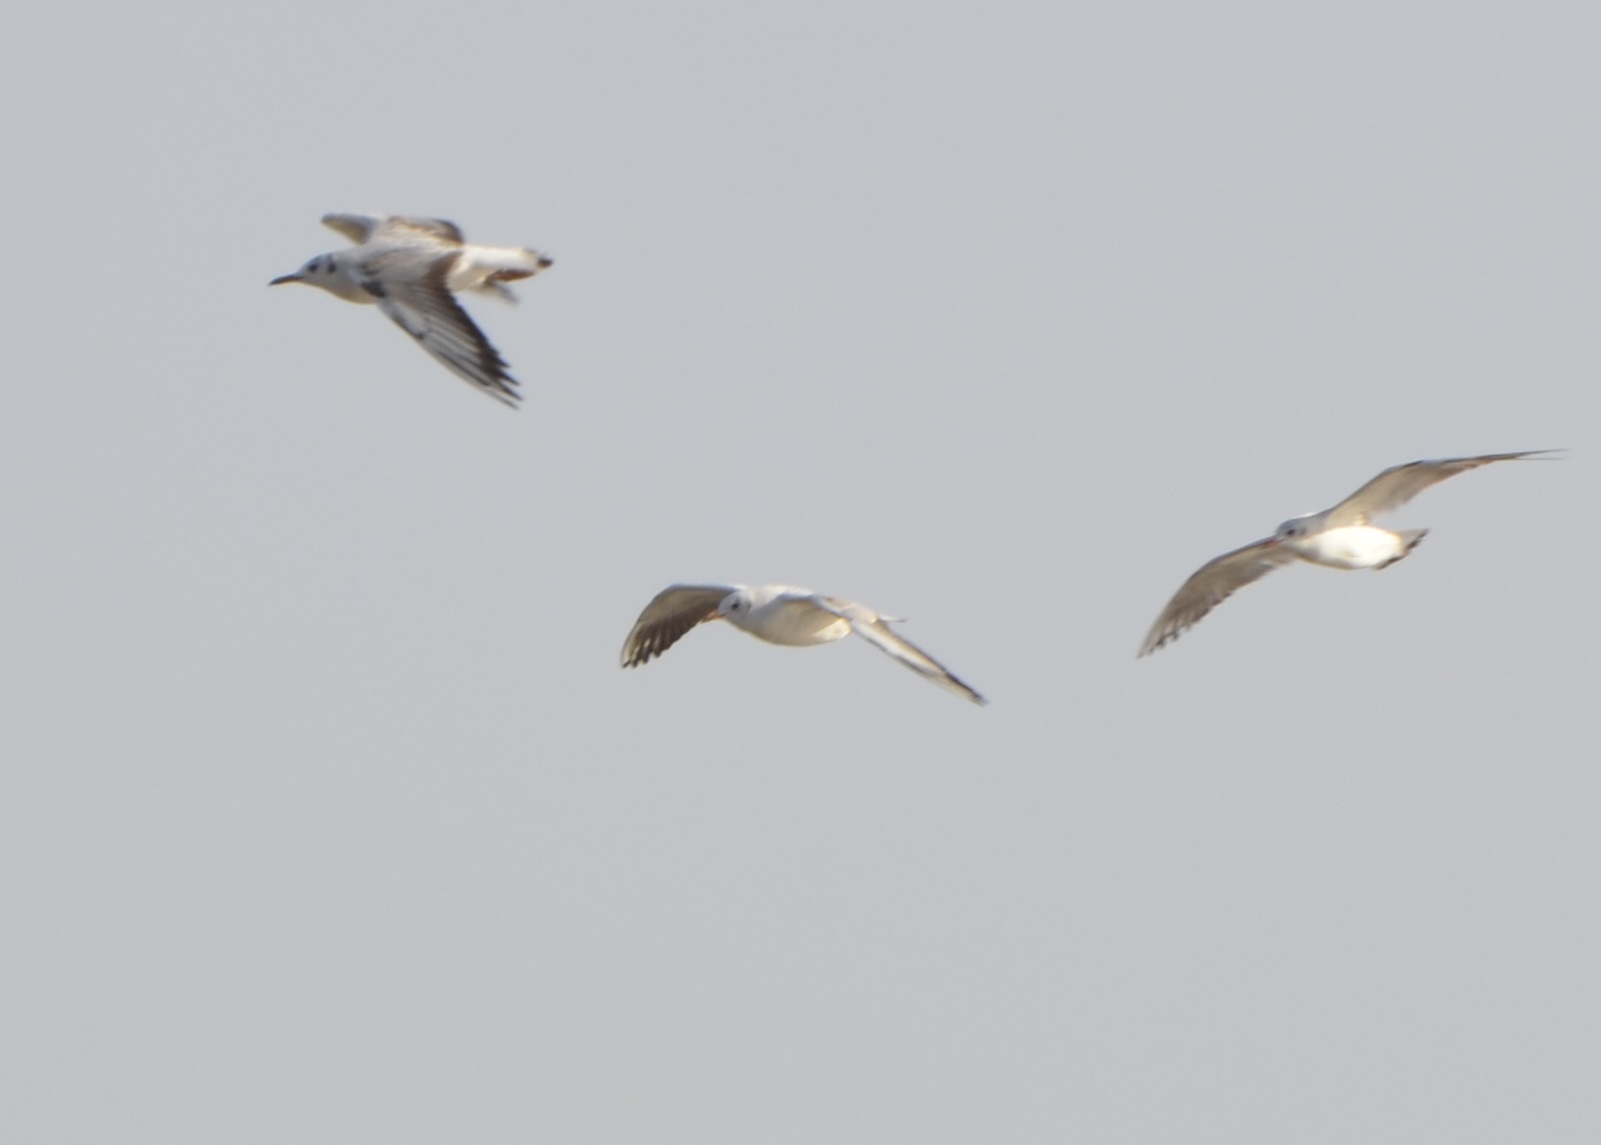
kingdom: Animalia
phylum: Chordata
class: Aves
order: Charadriiformes
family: Laridae
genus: Chroicocephalus
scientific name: Chroicocephalus ridibundus
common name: Black-headed gull
